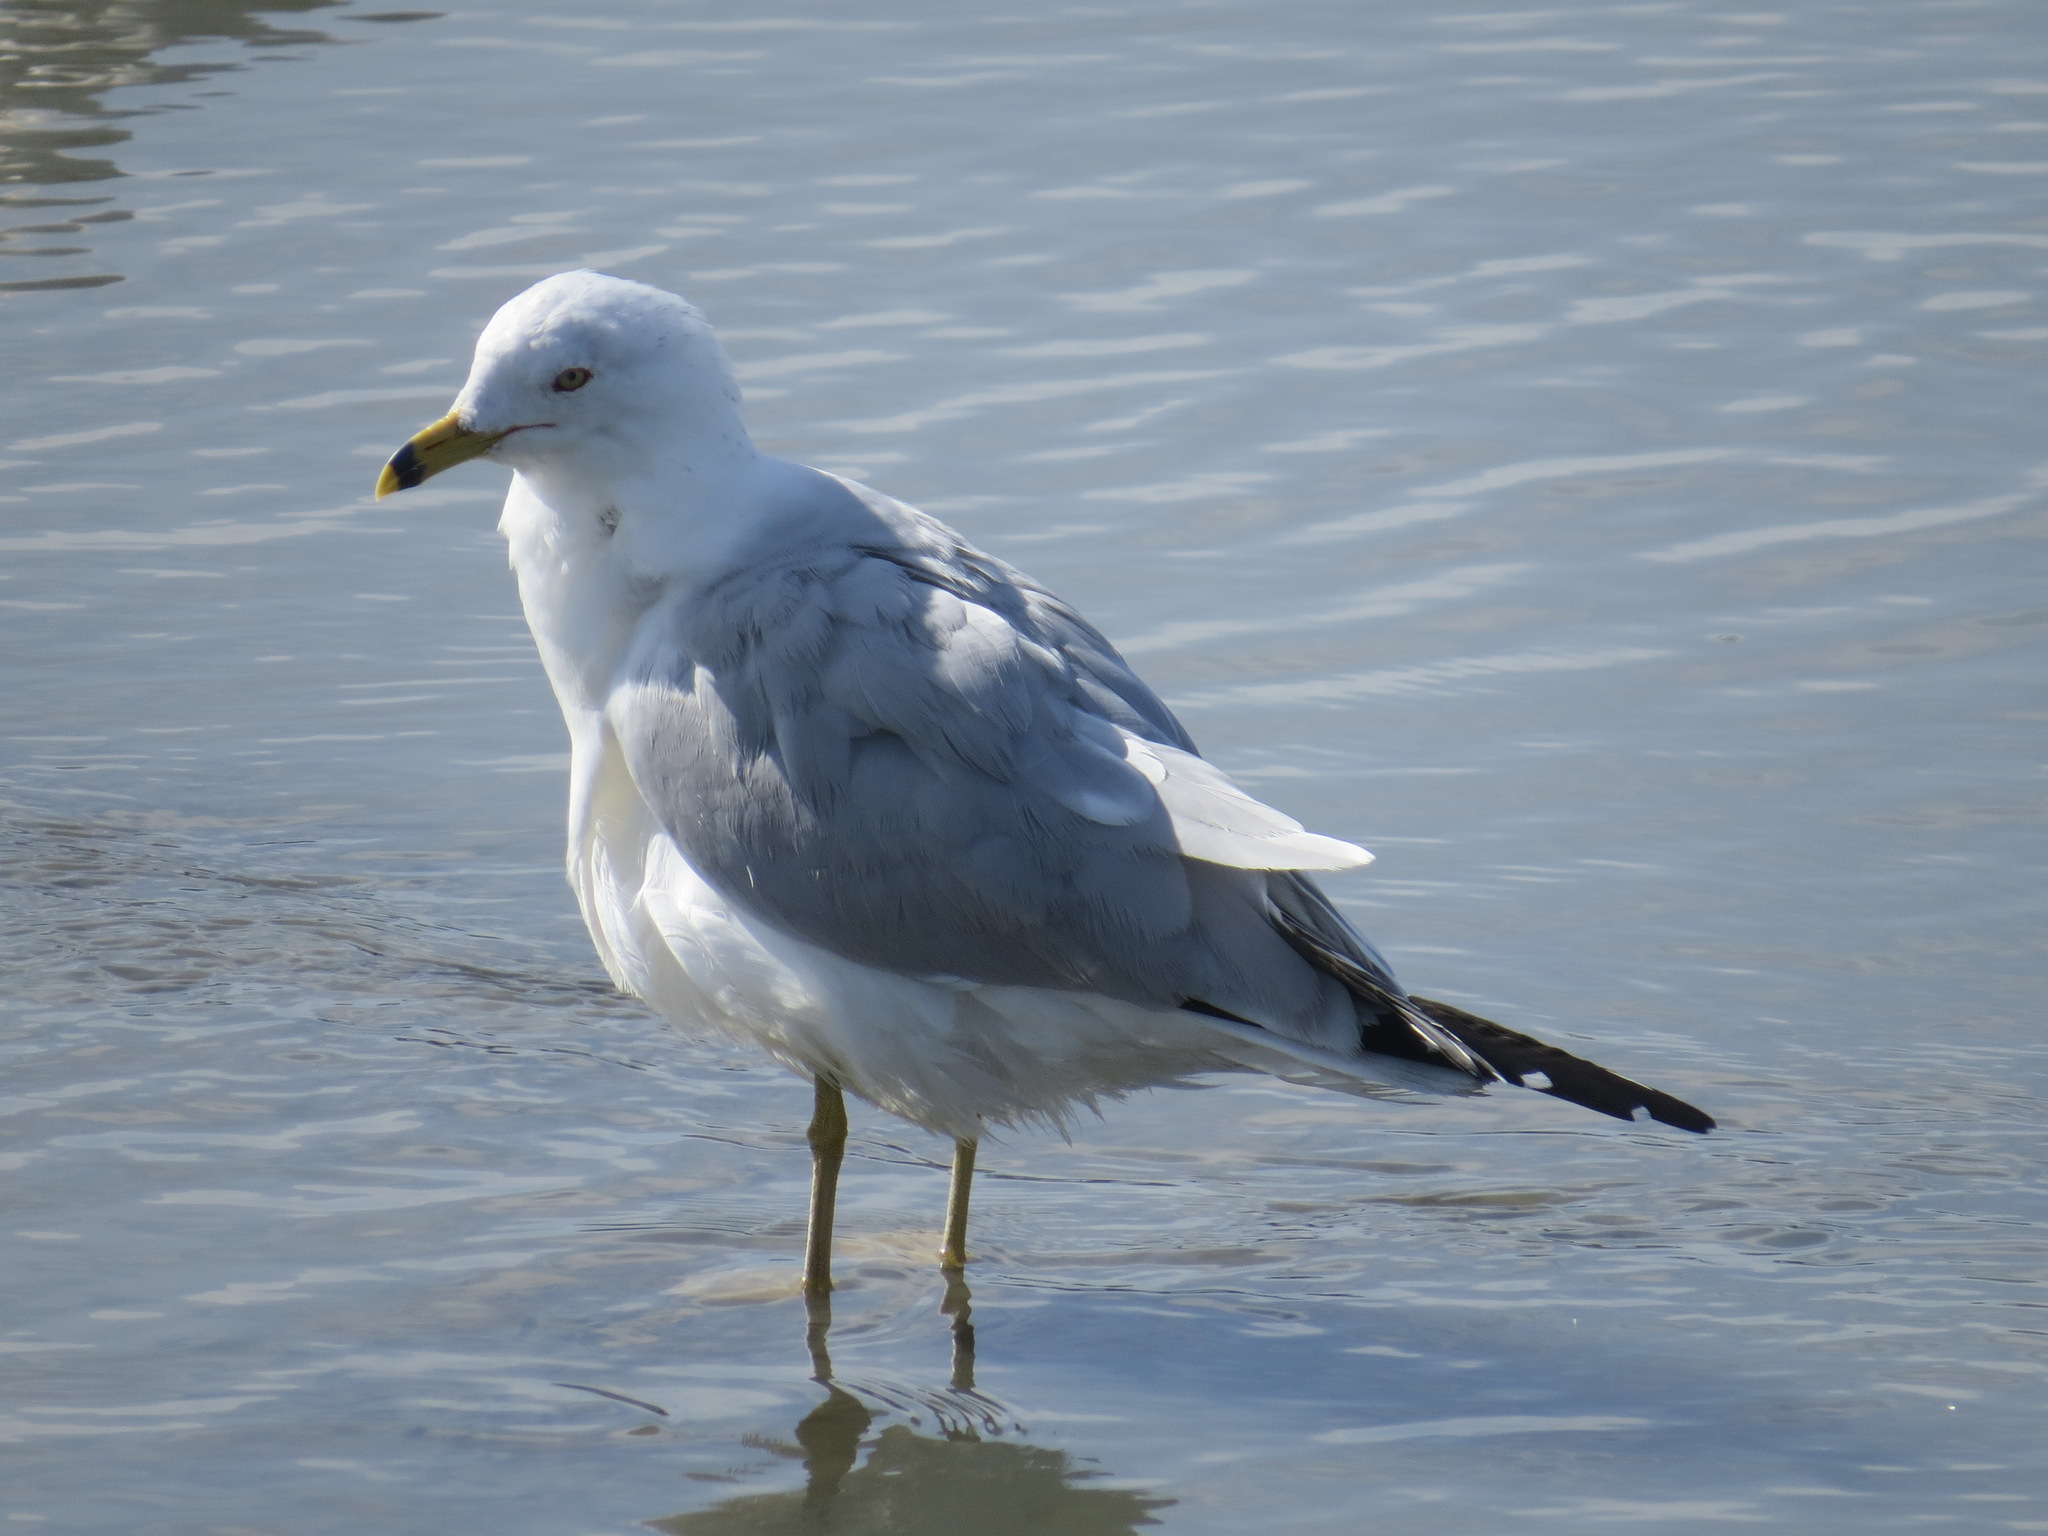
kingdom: Animalia
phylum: Chordata
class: Aves
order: Charadriiformes
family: Laridae
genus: Larus
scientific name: Larus delawarensis
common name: Ring-billed gull
